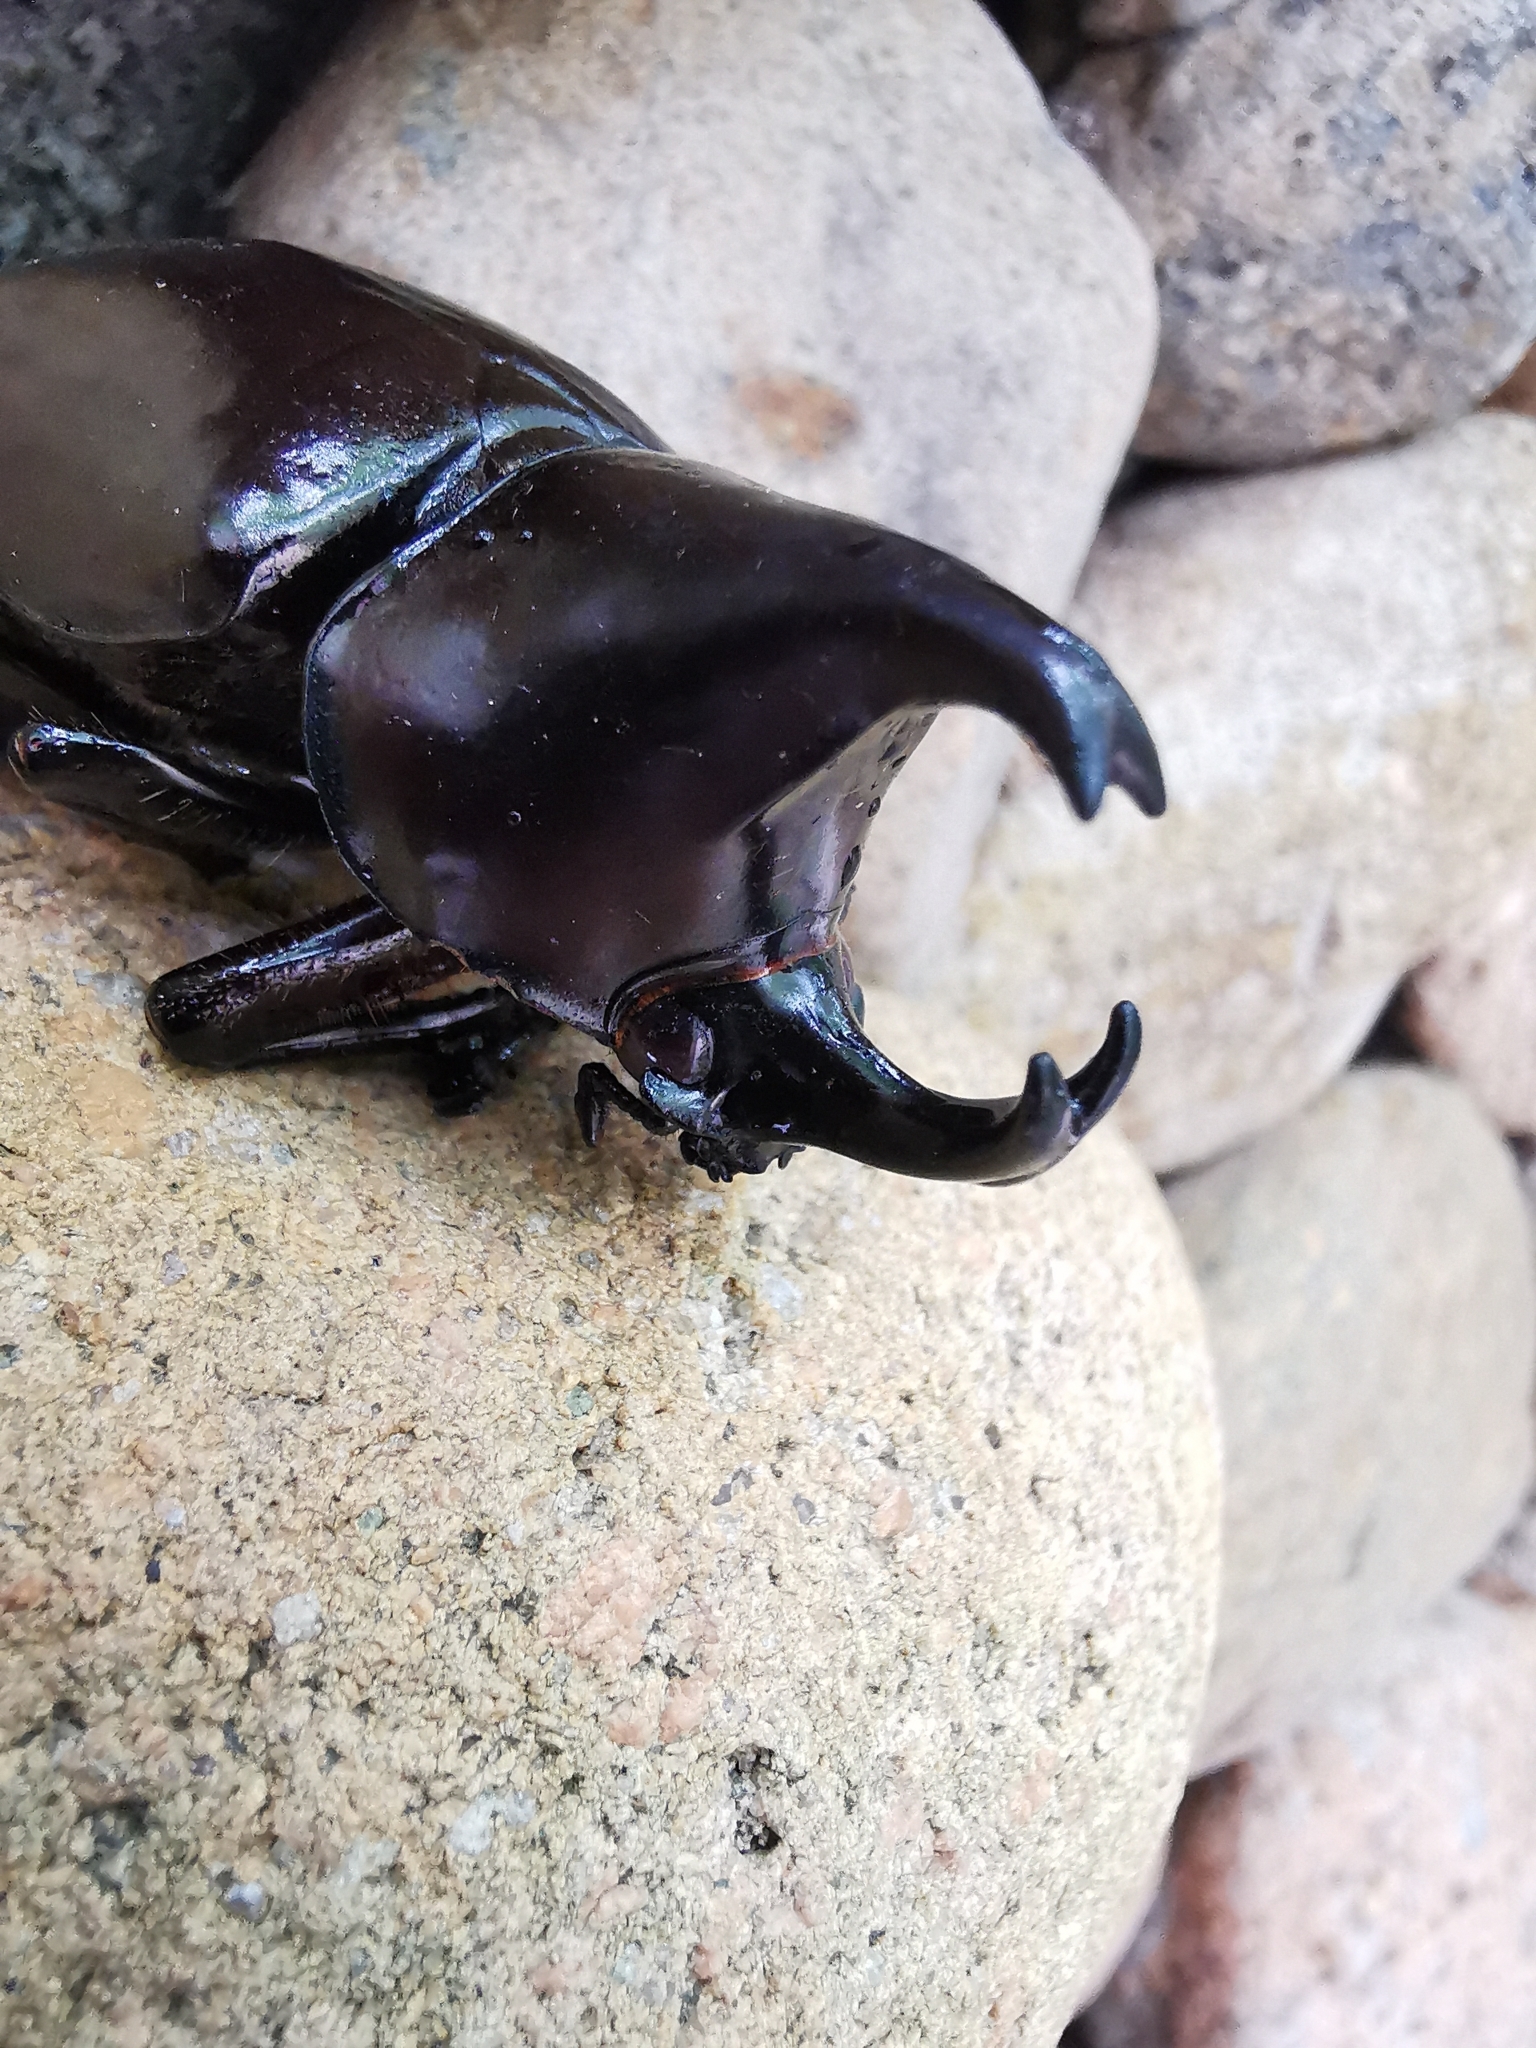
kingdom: Animalia
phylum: Arthropoda
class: Insecta
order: Coleoptera
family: Scarabaeidae
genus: Xylotrupes
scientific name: Xylotrupes socrates
